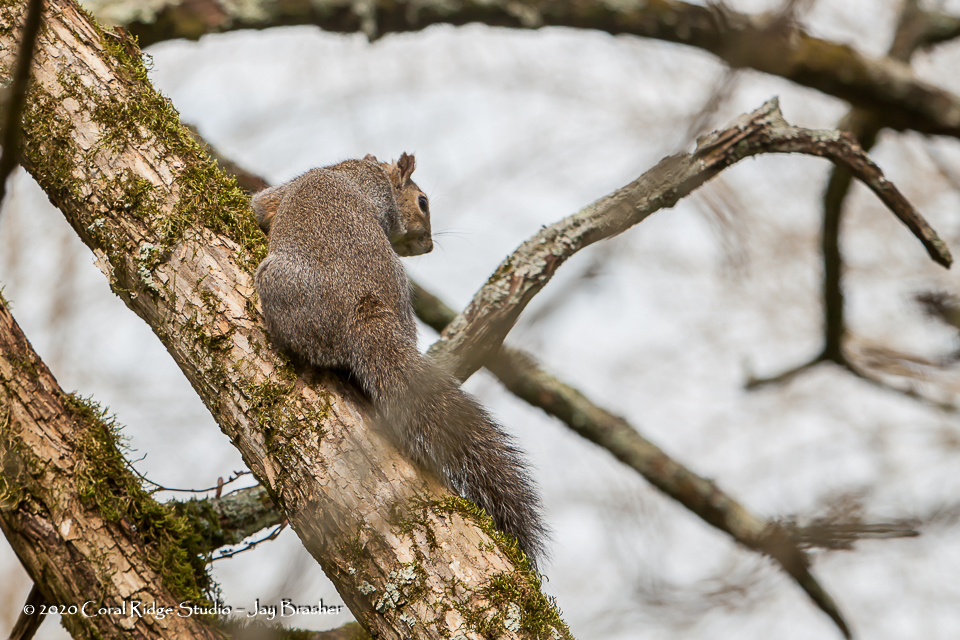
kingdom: Animalia
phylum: Chordata
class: Mammalia
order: Rodentia
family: Sciuridae
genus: Sciurus
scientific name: Sciurus carolinensis
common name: Eastern gray squirrel
